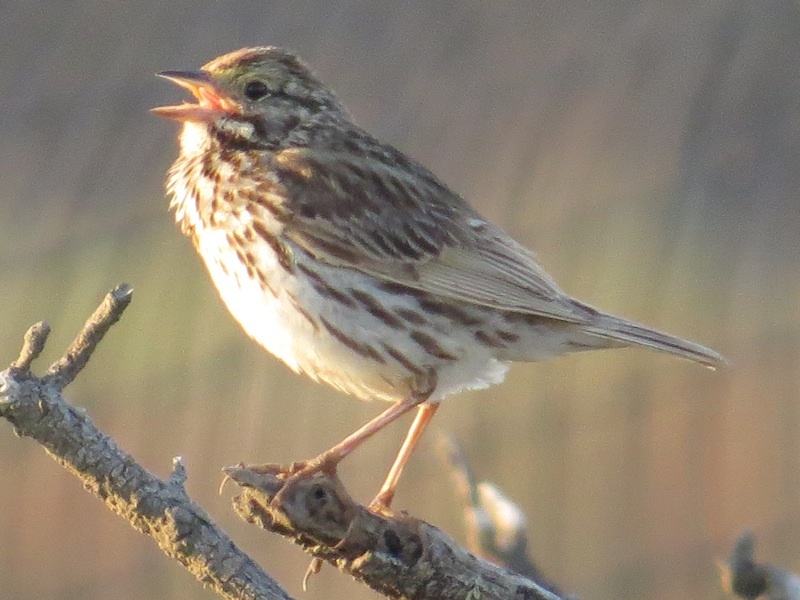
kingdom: Animalia
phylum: Chordata
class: Aves
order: Passeriformes
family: Passerellidae
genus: Passerculus
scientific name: Passerculus sandwichensis
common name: Savannah sparrow
